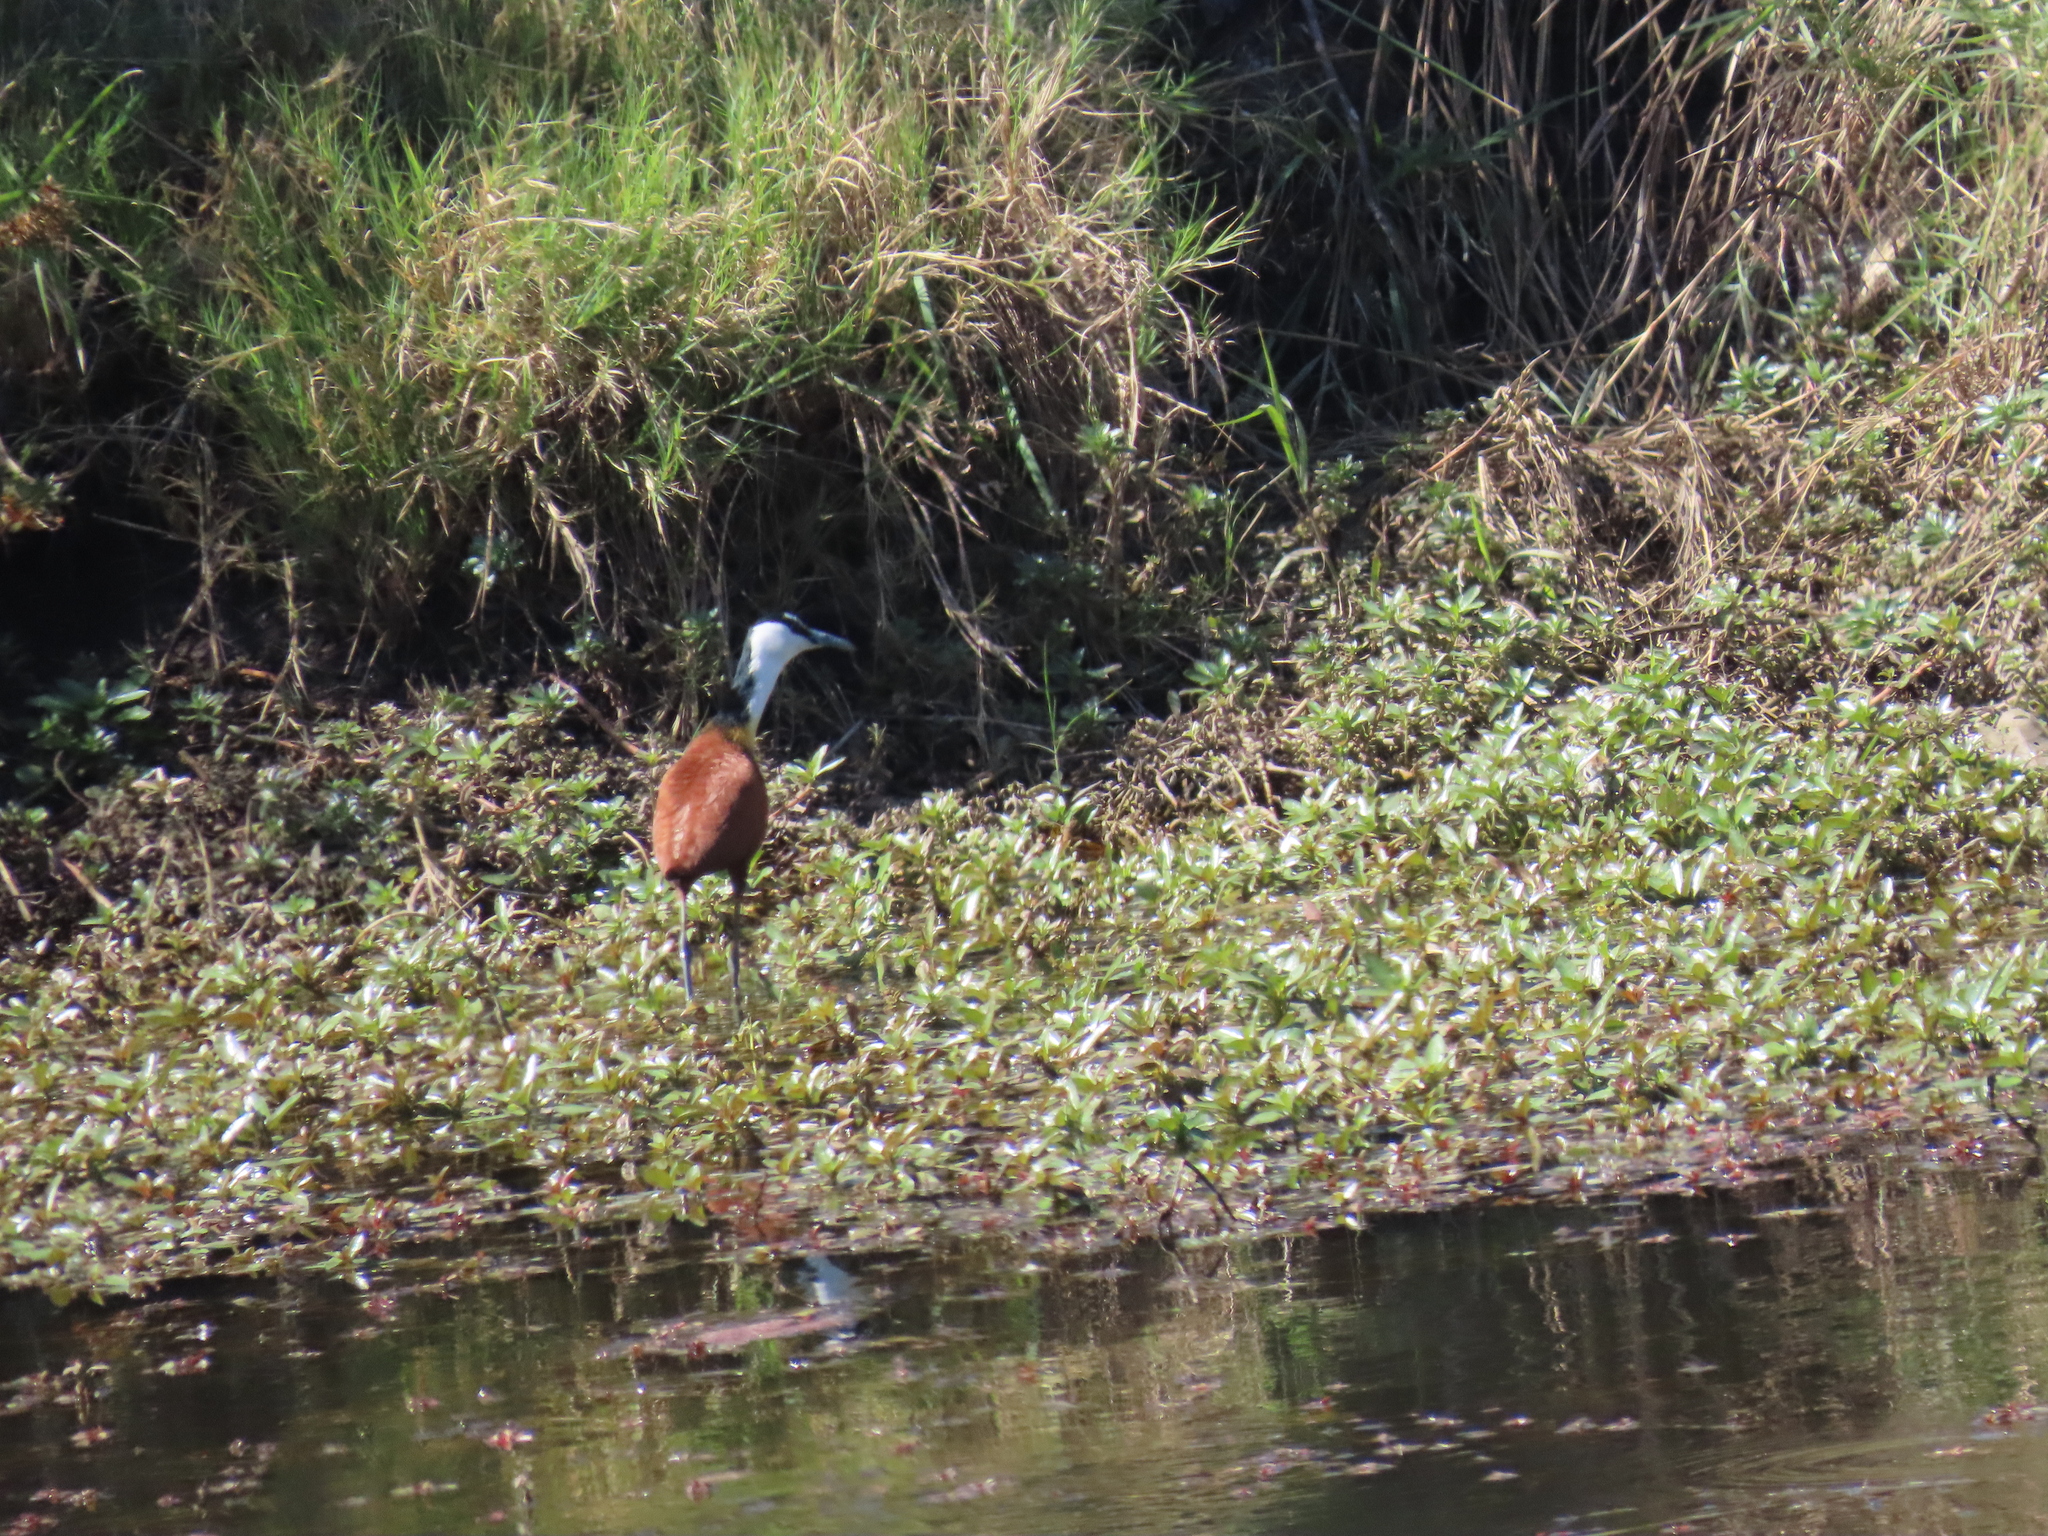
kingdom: Animalia
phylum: Chordata
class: Aves
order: Charadriiformes
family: Jacanidae
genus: Actophilornis
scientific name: Actophilornis africanus
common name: African jacana
